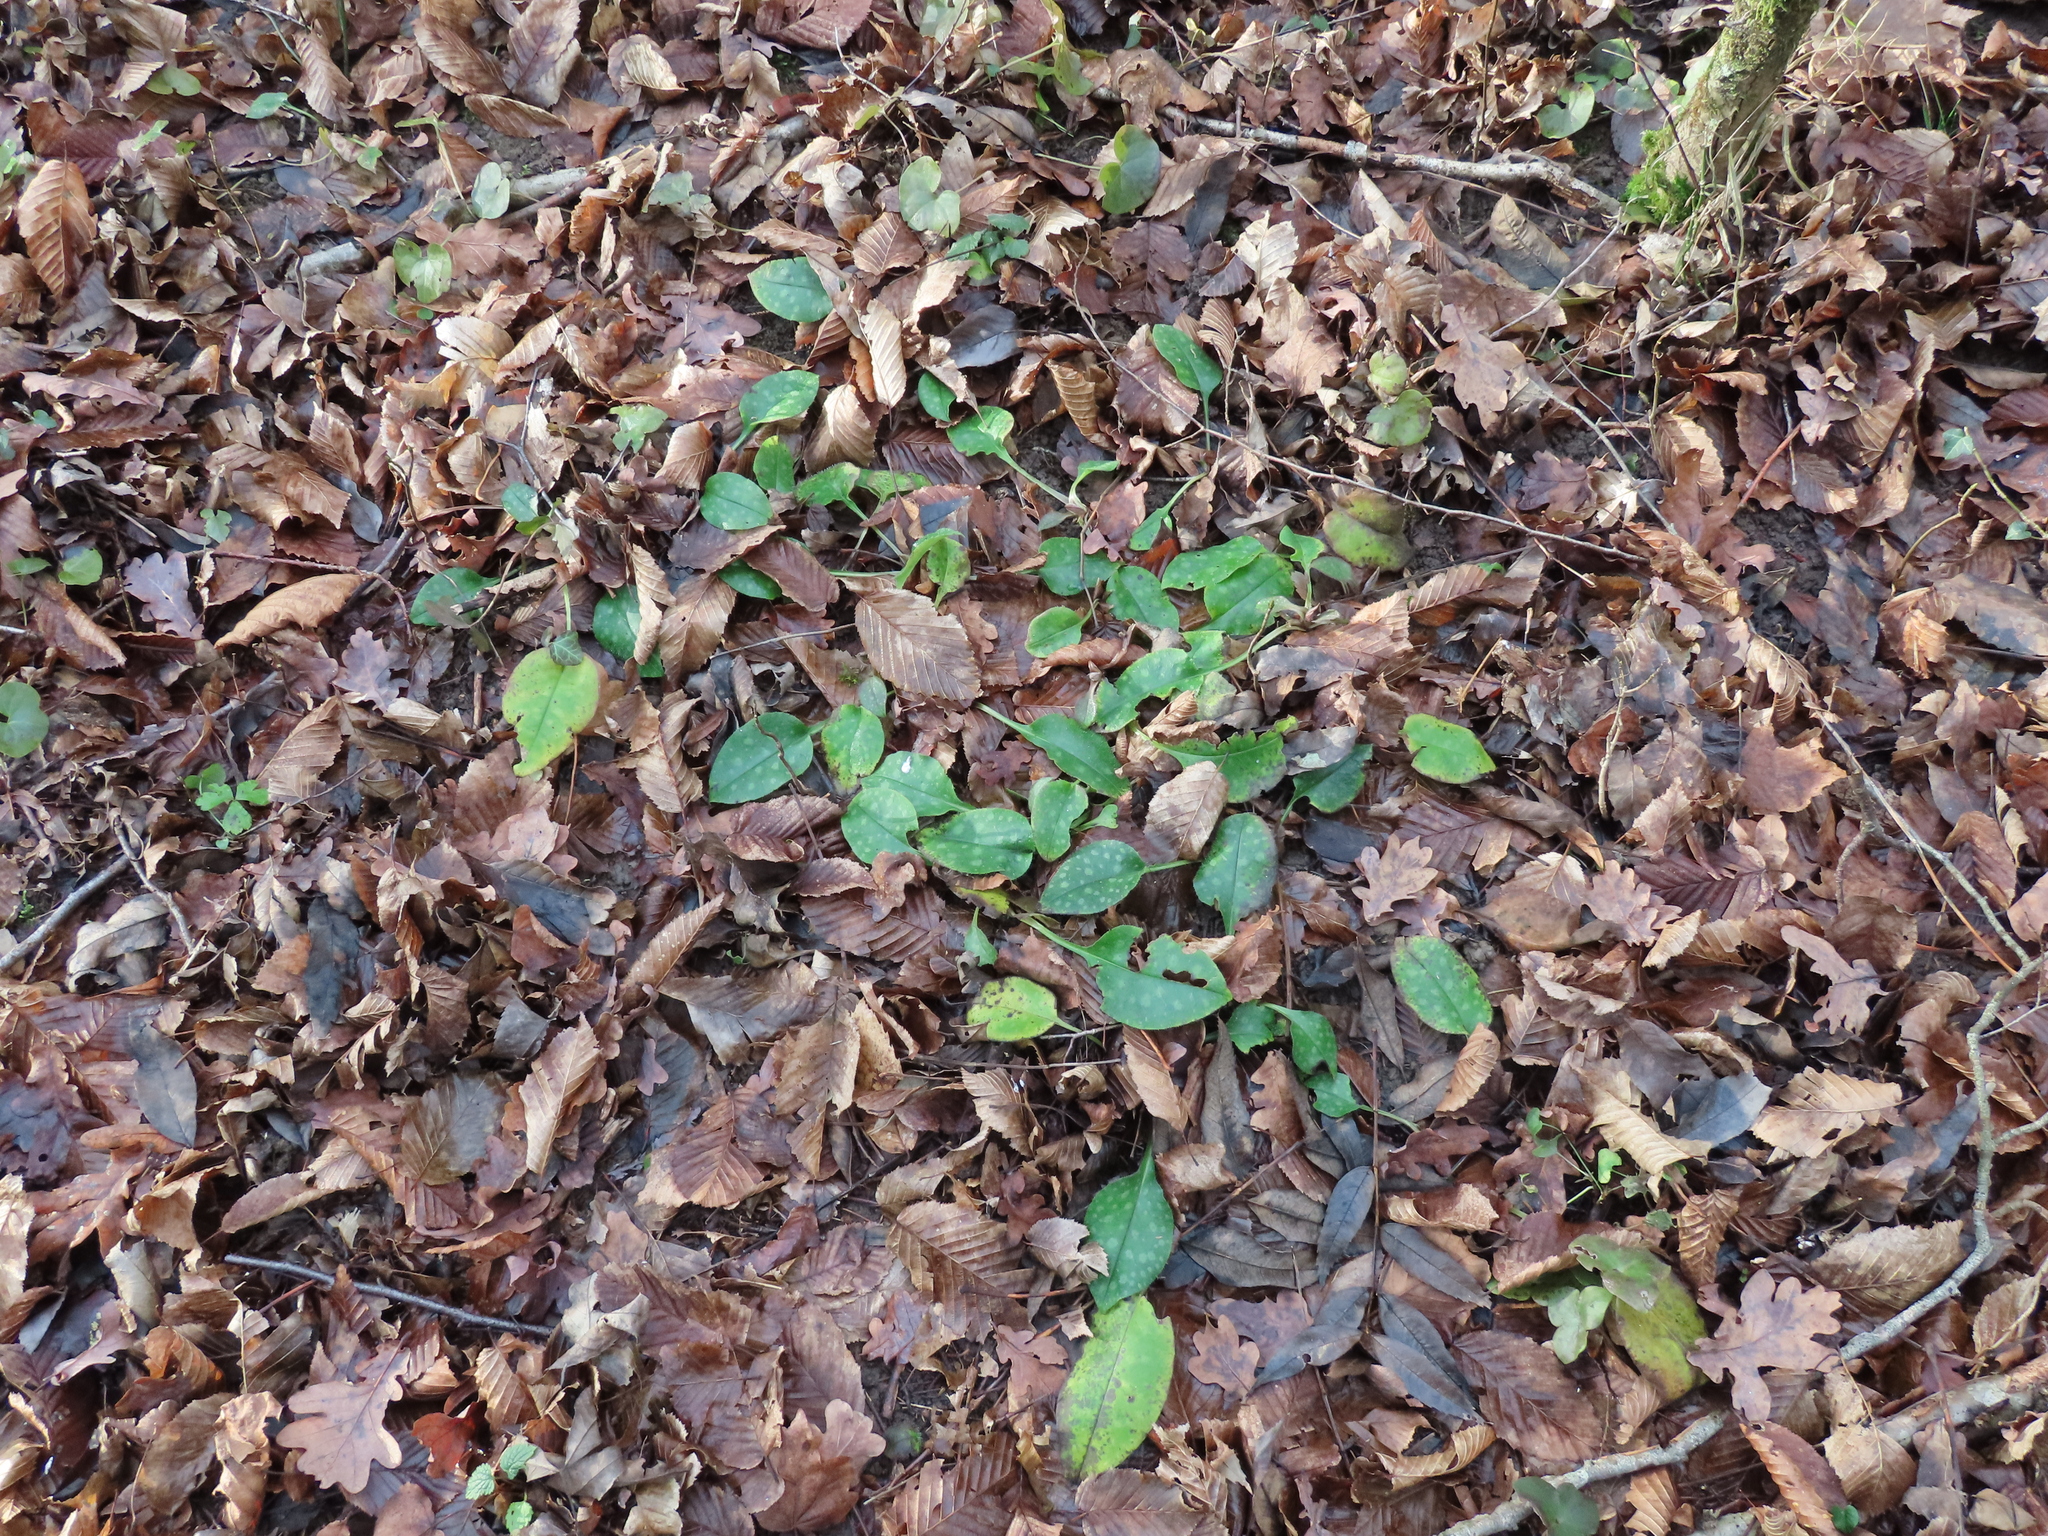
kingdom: Plantae
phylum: Tracheophyta
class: Magnoliopsida
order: Boraginales
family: Boraginaceae
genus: Pulmonaria
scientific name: Pulmonaria officinalis
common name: Lungwort
